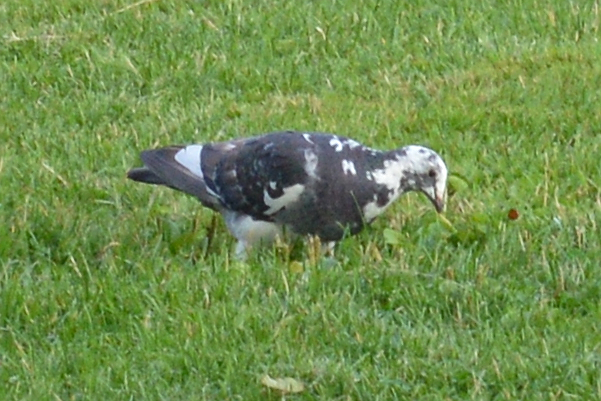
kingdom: Animalia
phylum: Chordata
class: Aves
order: Columbiformes
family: Columbidae
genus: Columba
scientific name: Columba livia
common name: Rock pigeon
